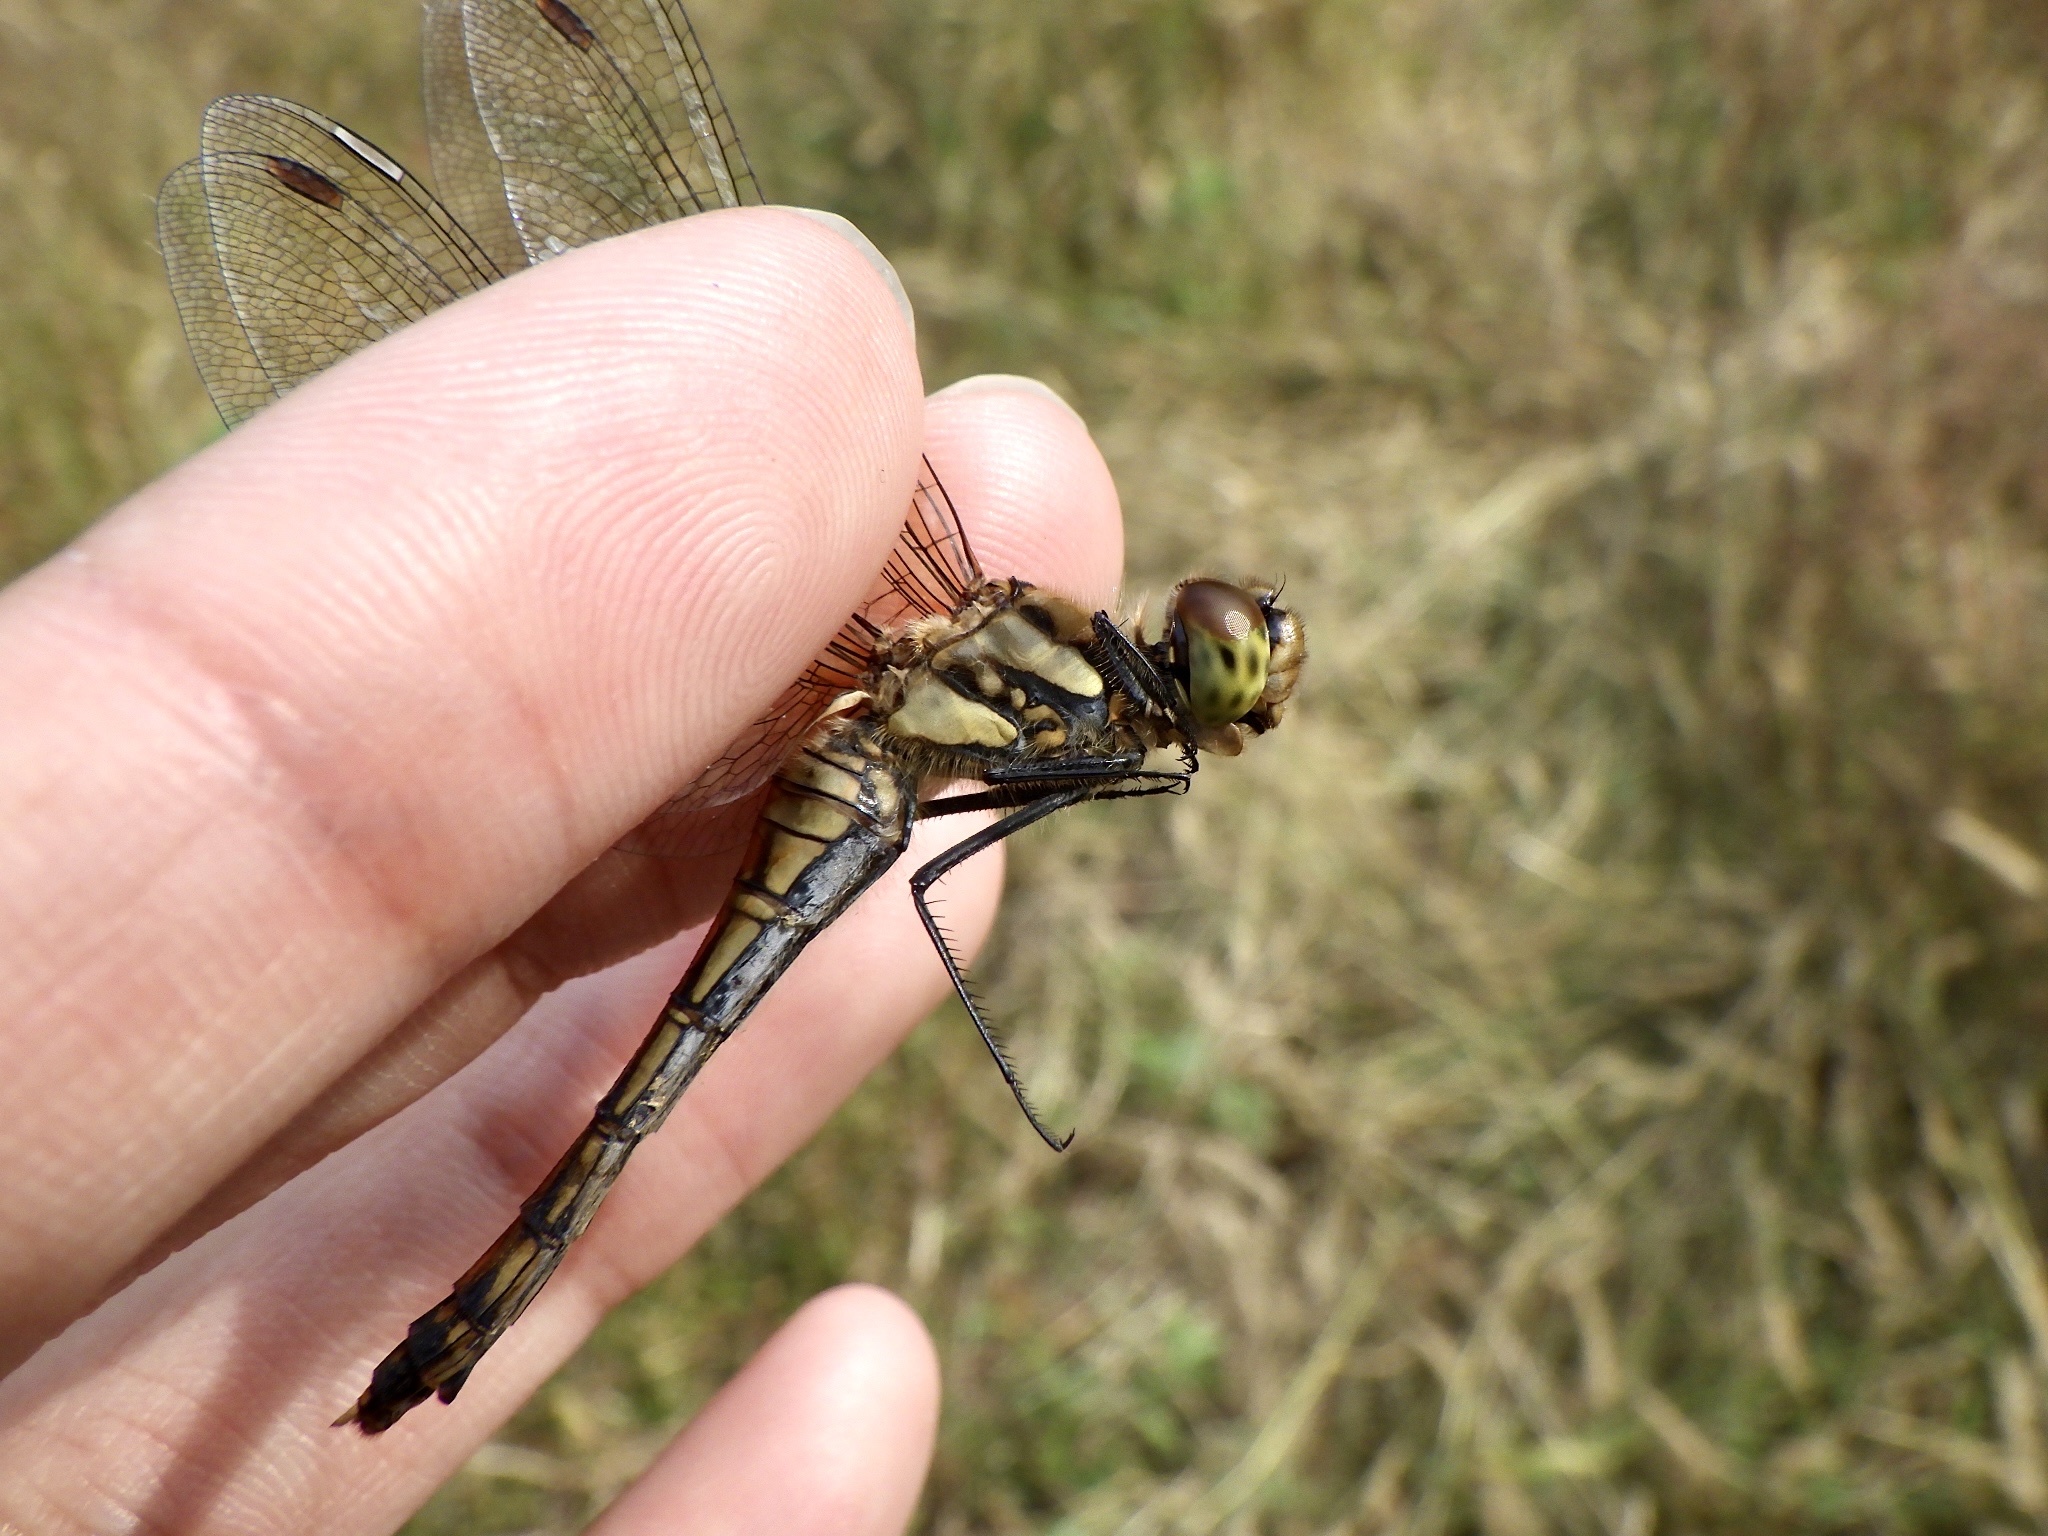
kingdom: Animalia
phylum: Arthropoda
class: Insecta
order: Odonata
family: Libellulidae
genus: Sympetrum
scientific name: Sympetrum frequens
